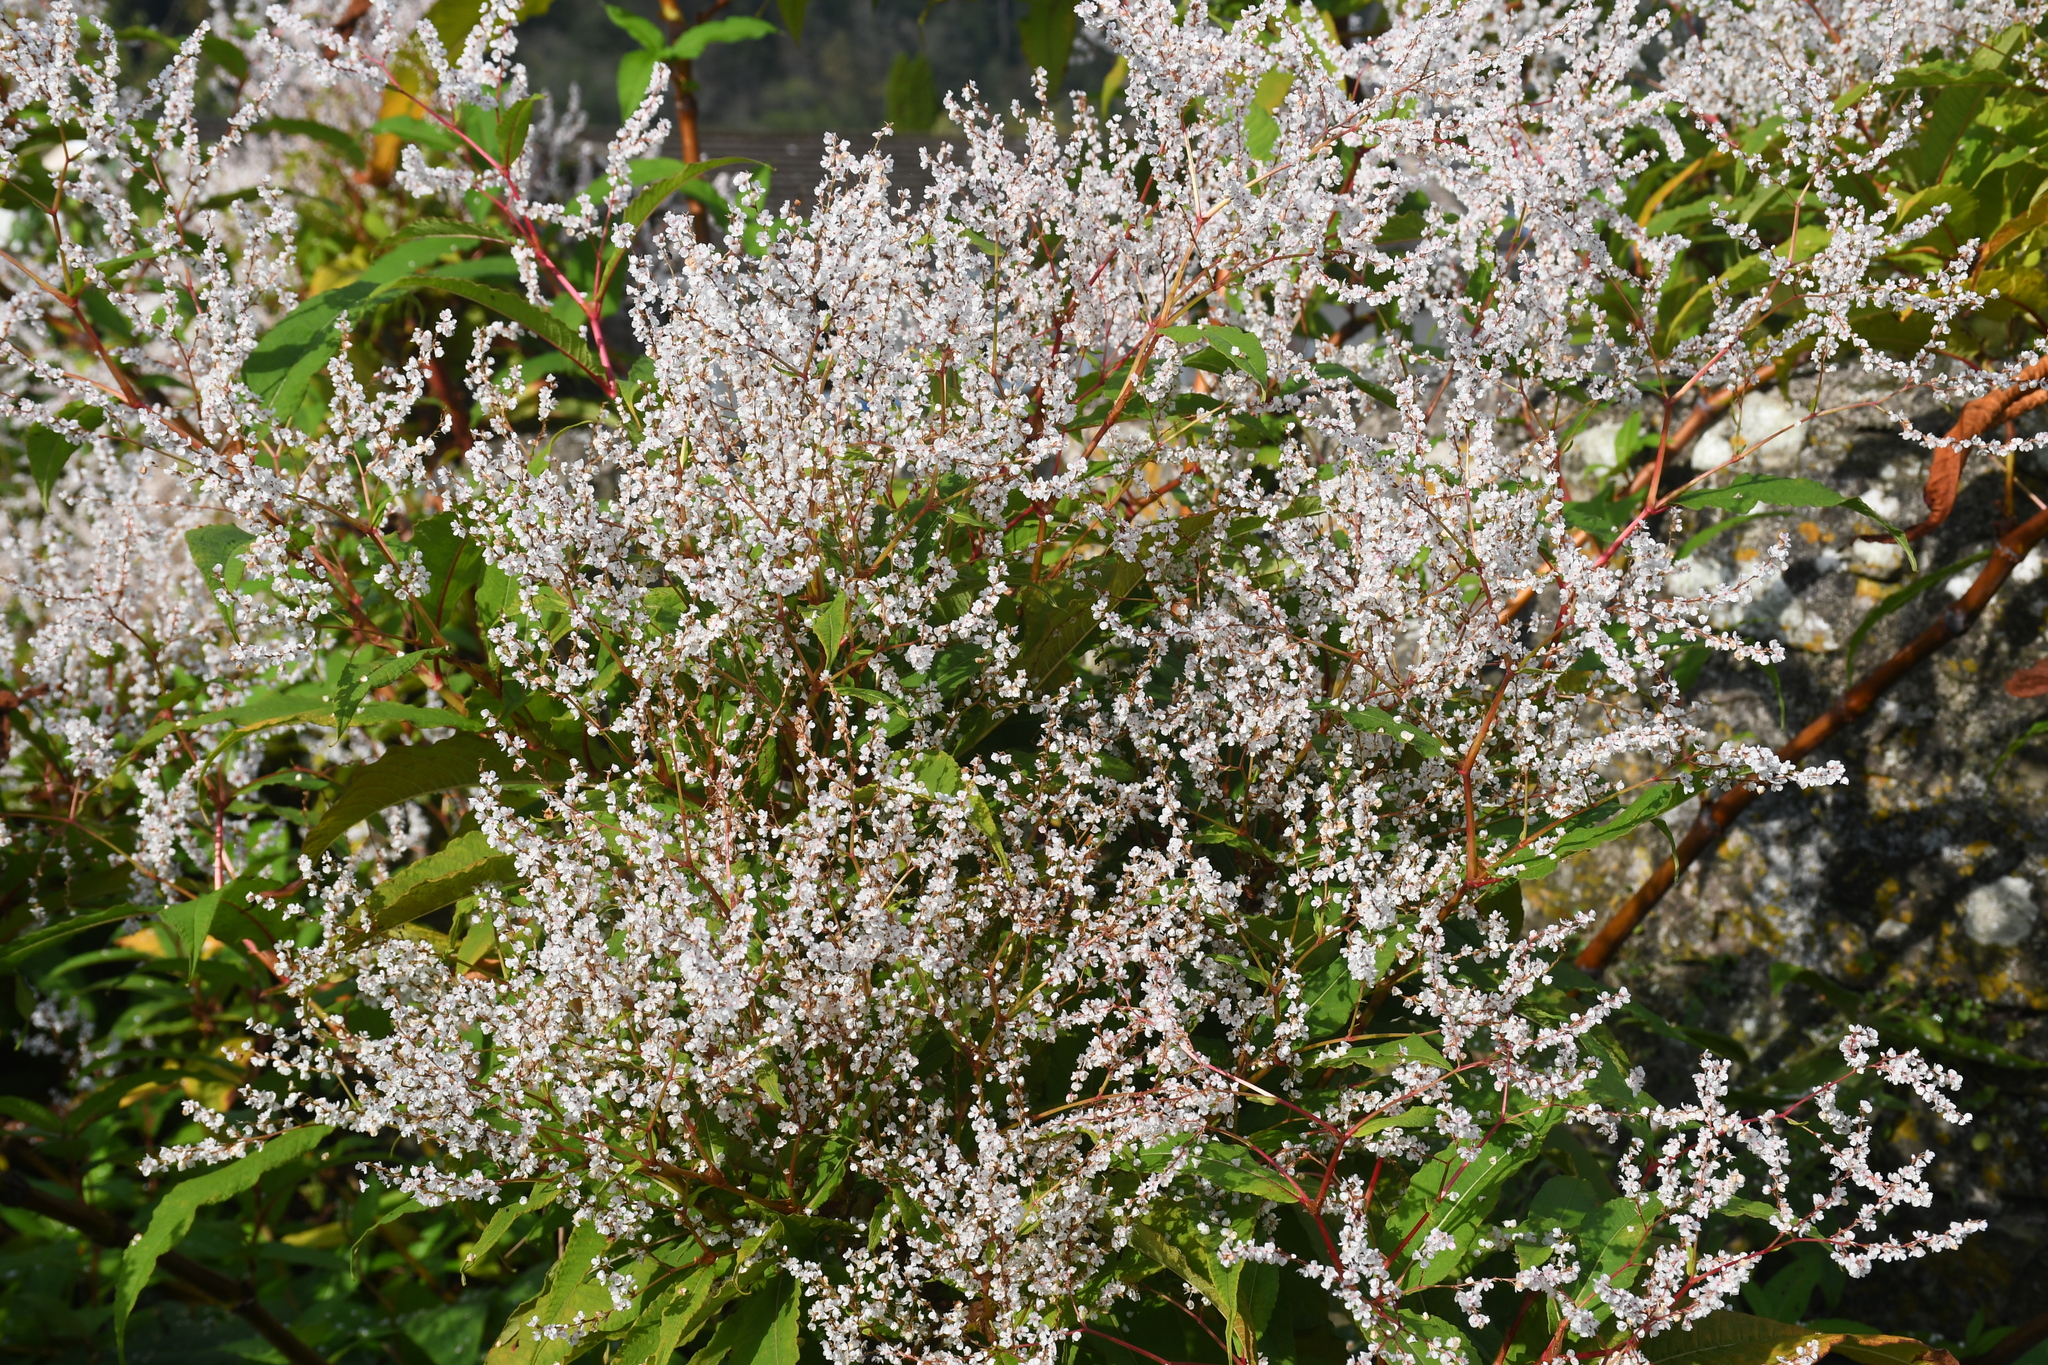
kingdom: Plantae
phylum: Tracheophyta
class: Magnoliopsida
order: Caryophyllales
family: Polygonaceae
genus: Fallopia
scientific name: Fallopia baldschuanica
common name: Russian-vine
